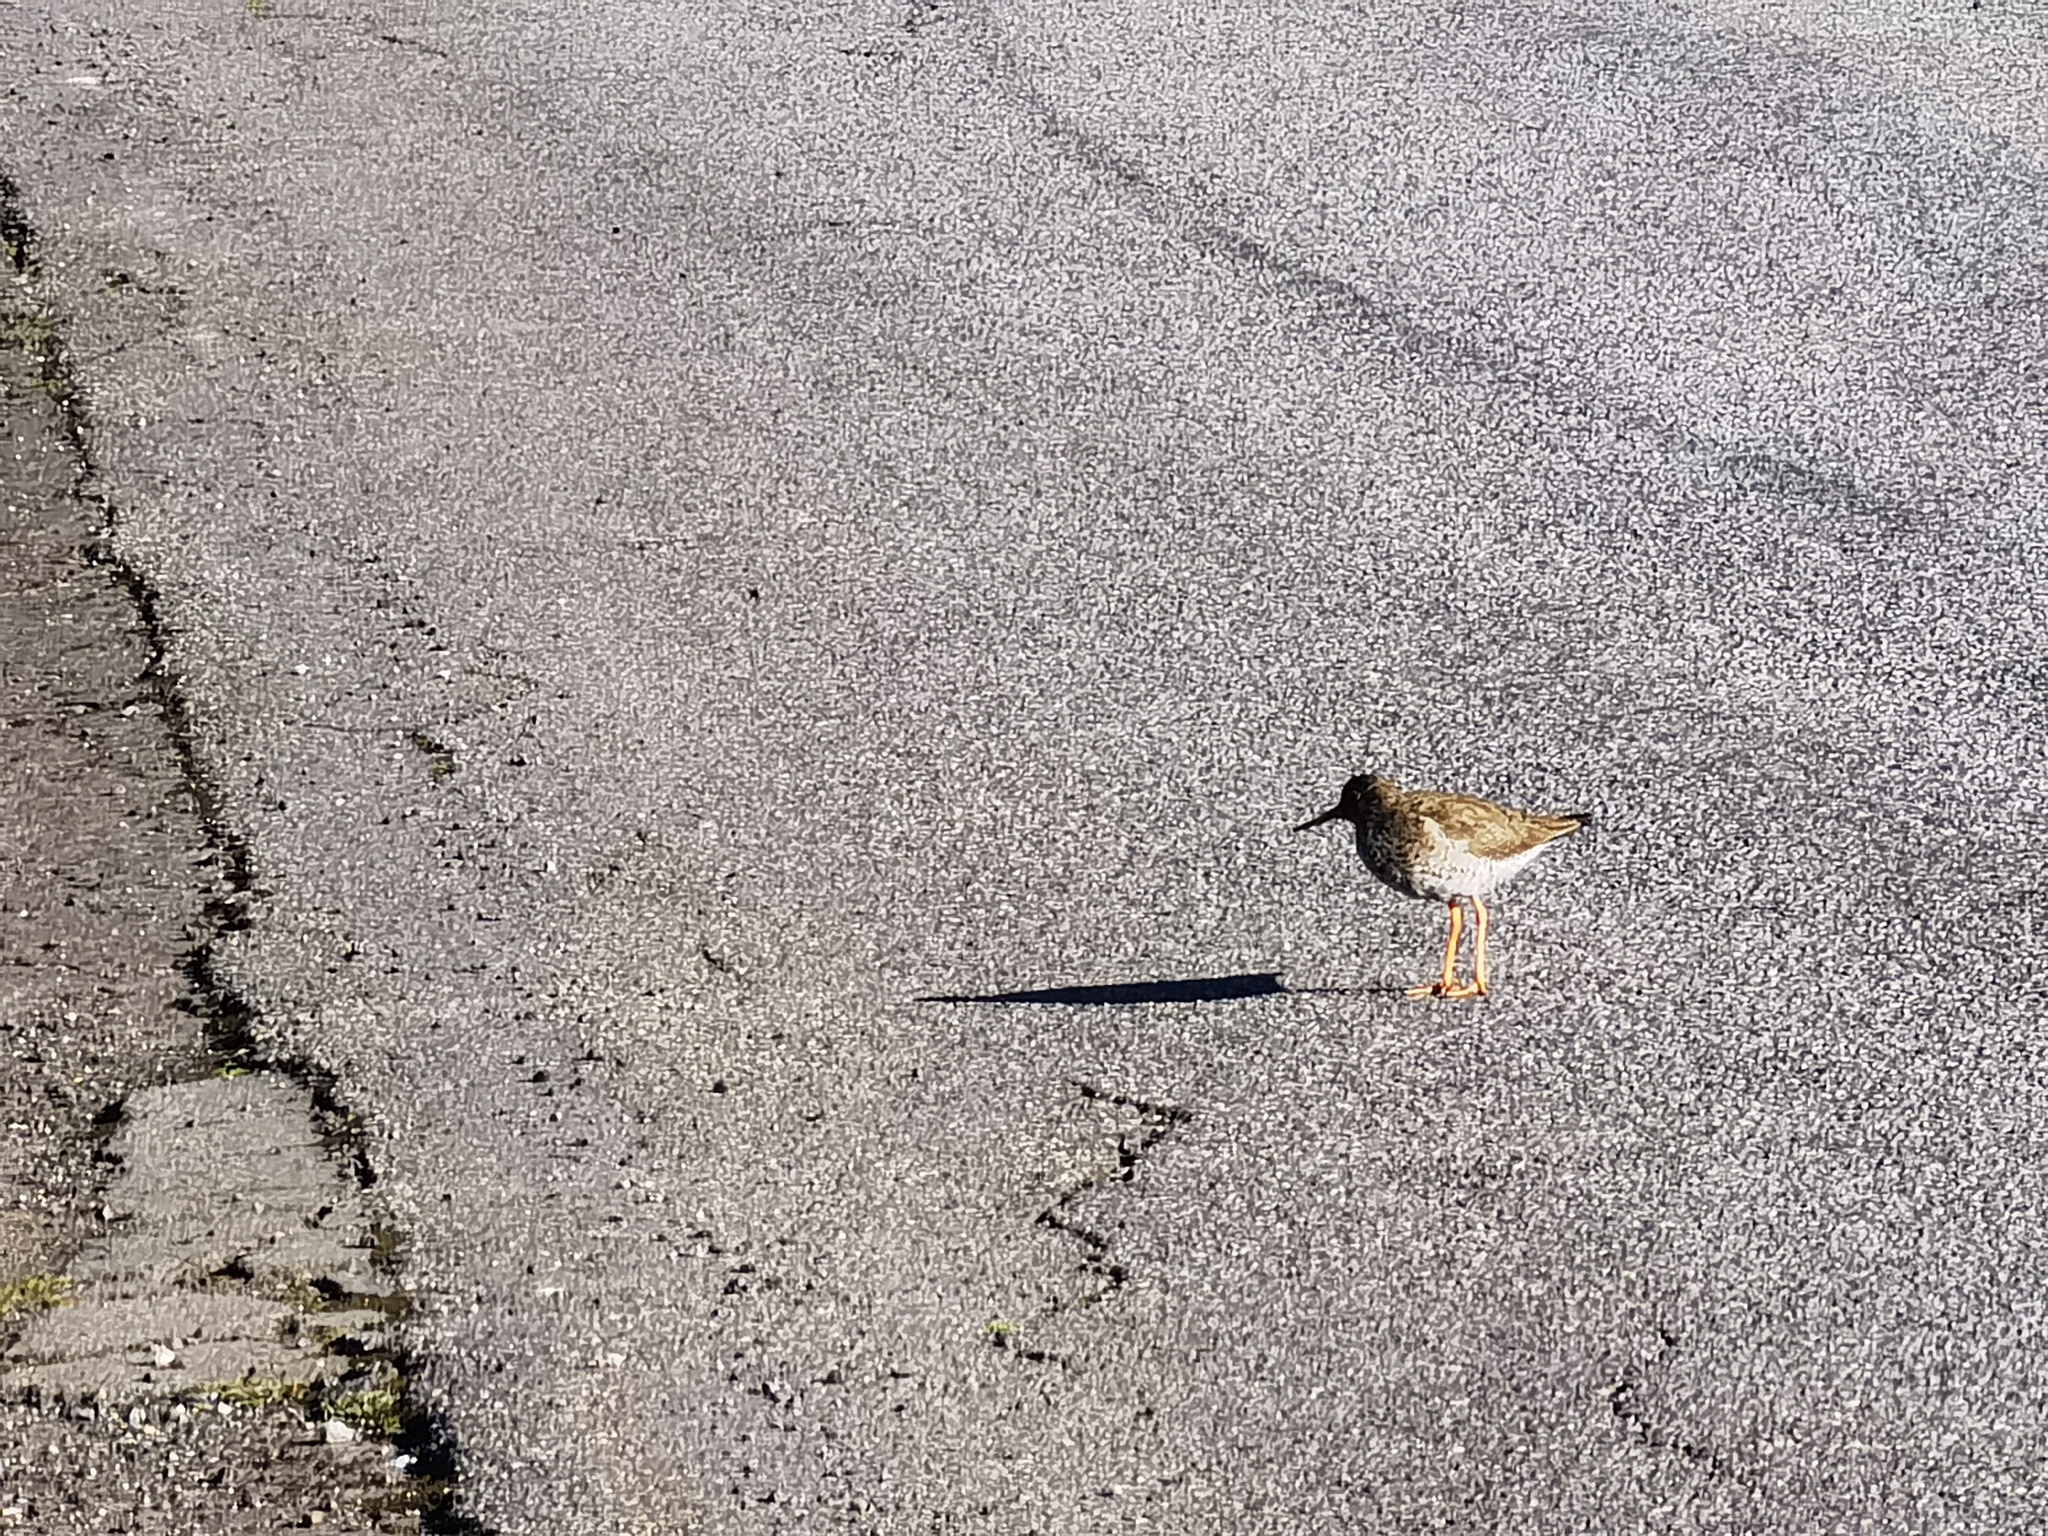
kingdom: Animalia
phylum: Chordata
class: Aves
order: Charadriiformes
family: Scolopacidae
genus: Tringa
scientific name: Tringa totanus
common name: Common redshank
